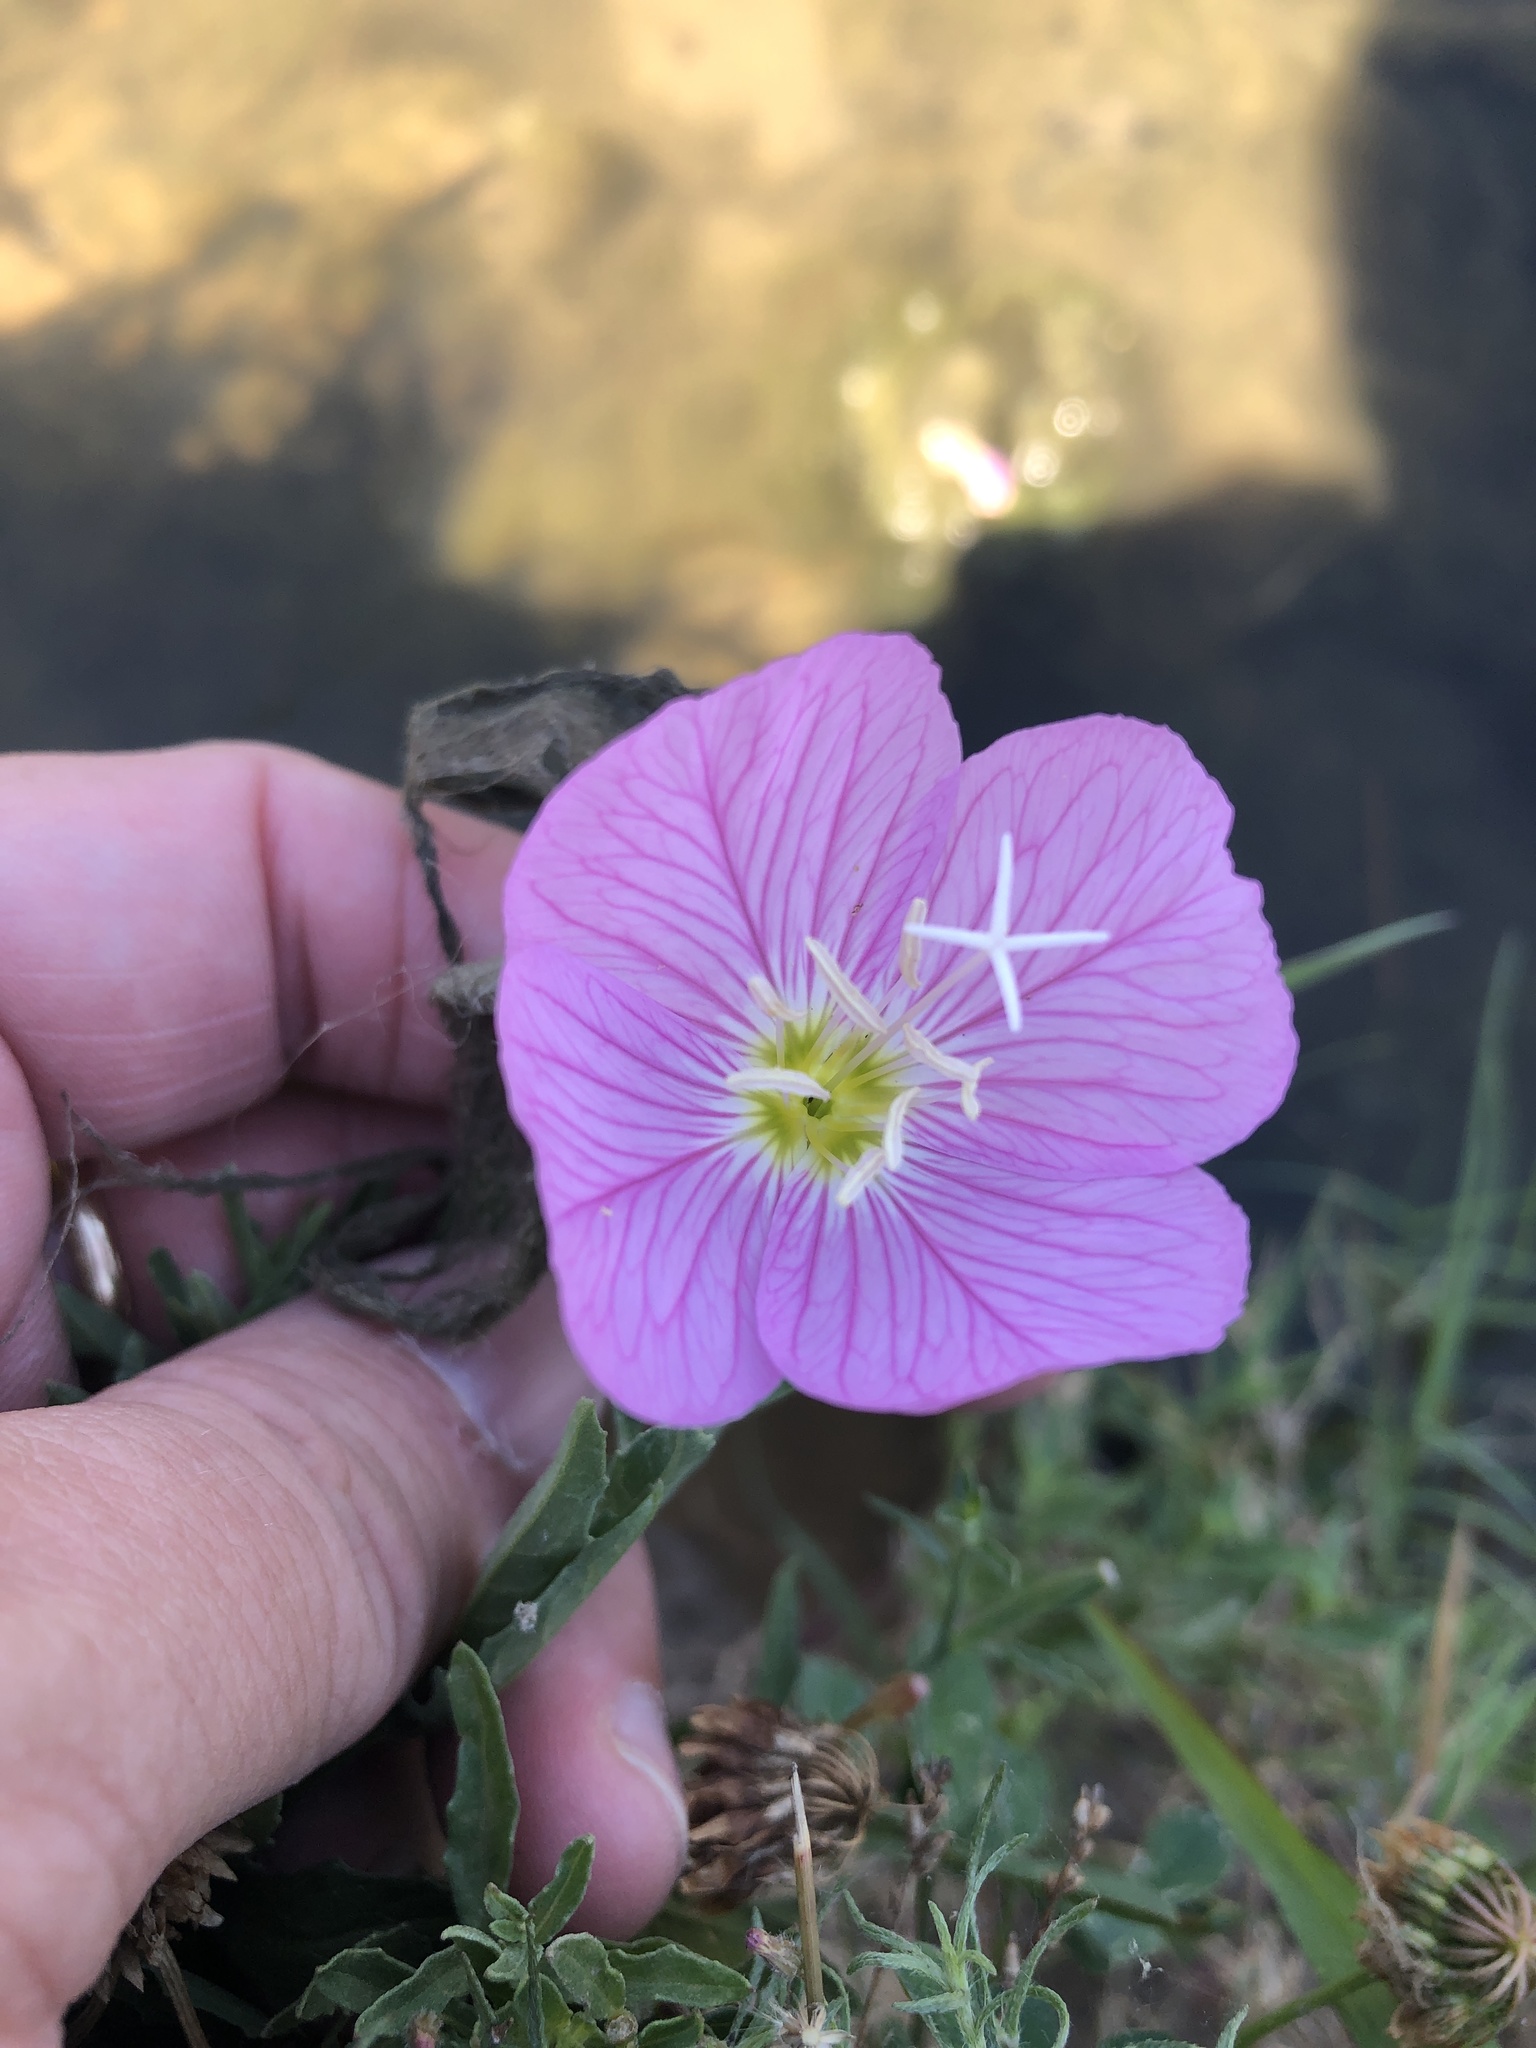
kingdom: Plantae
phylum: Tracheophyta
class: Magnoliopsida
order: Myrtales
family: Onagraceae
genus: Oenothera
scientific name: Oenothera speciosa
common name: White evening-primrose
